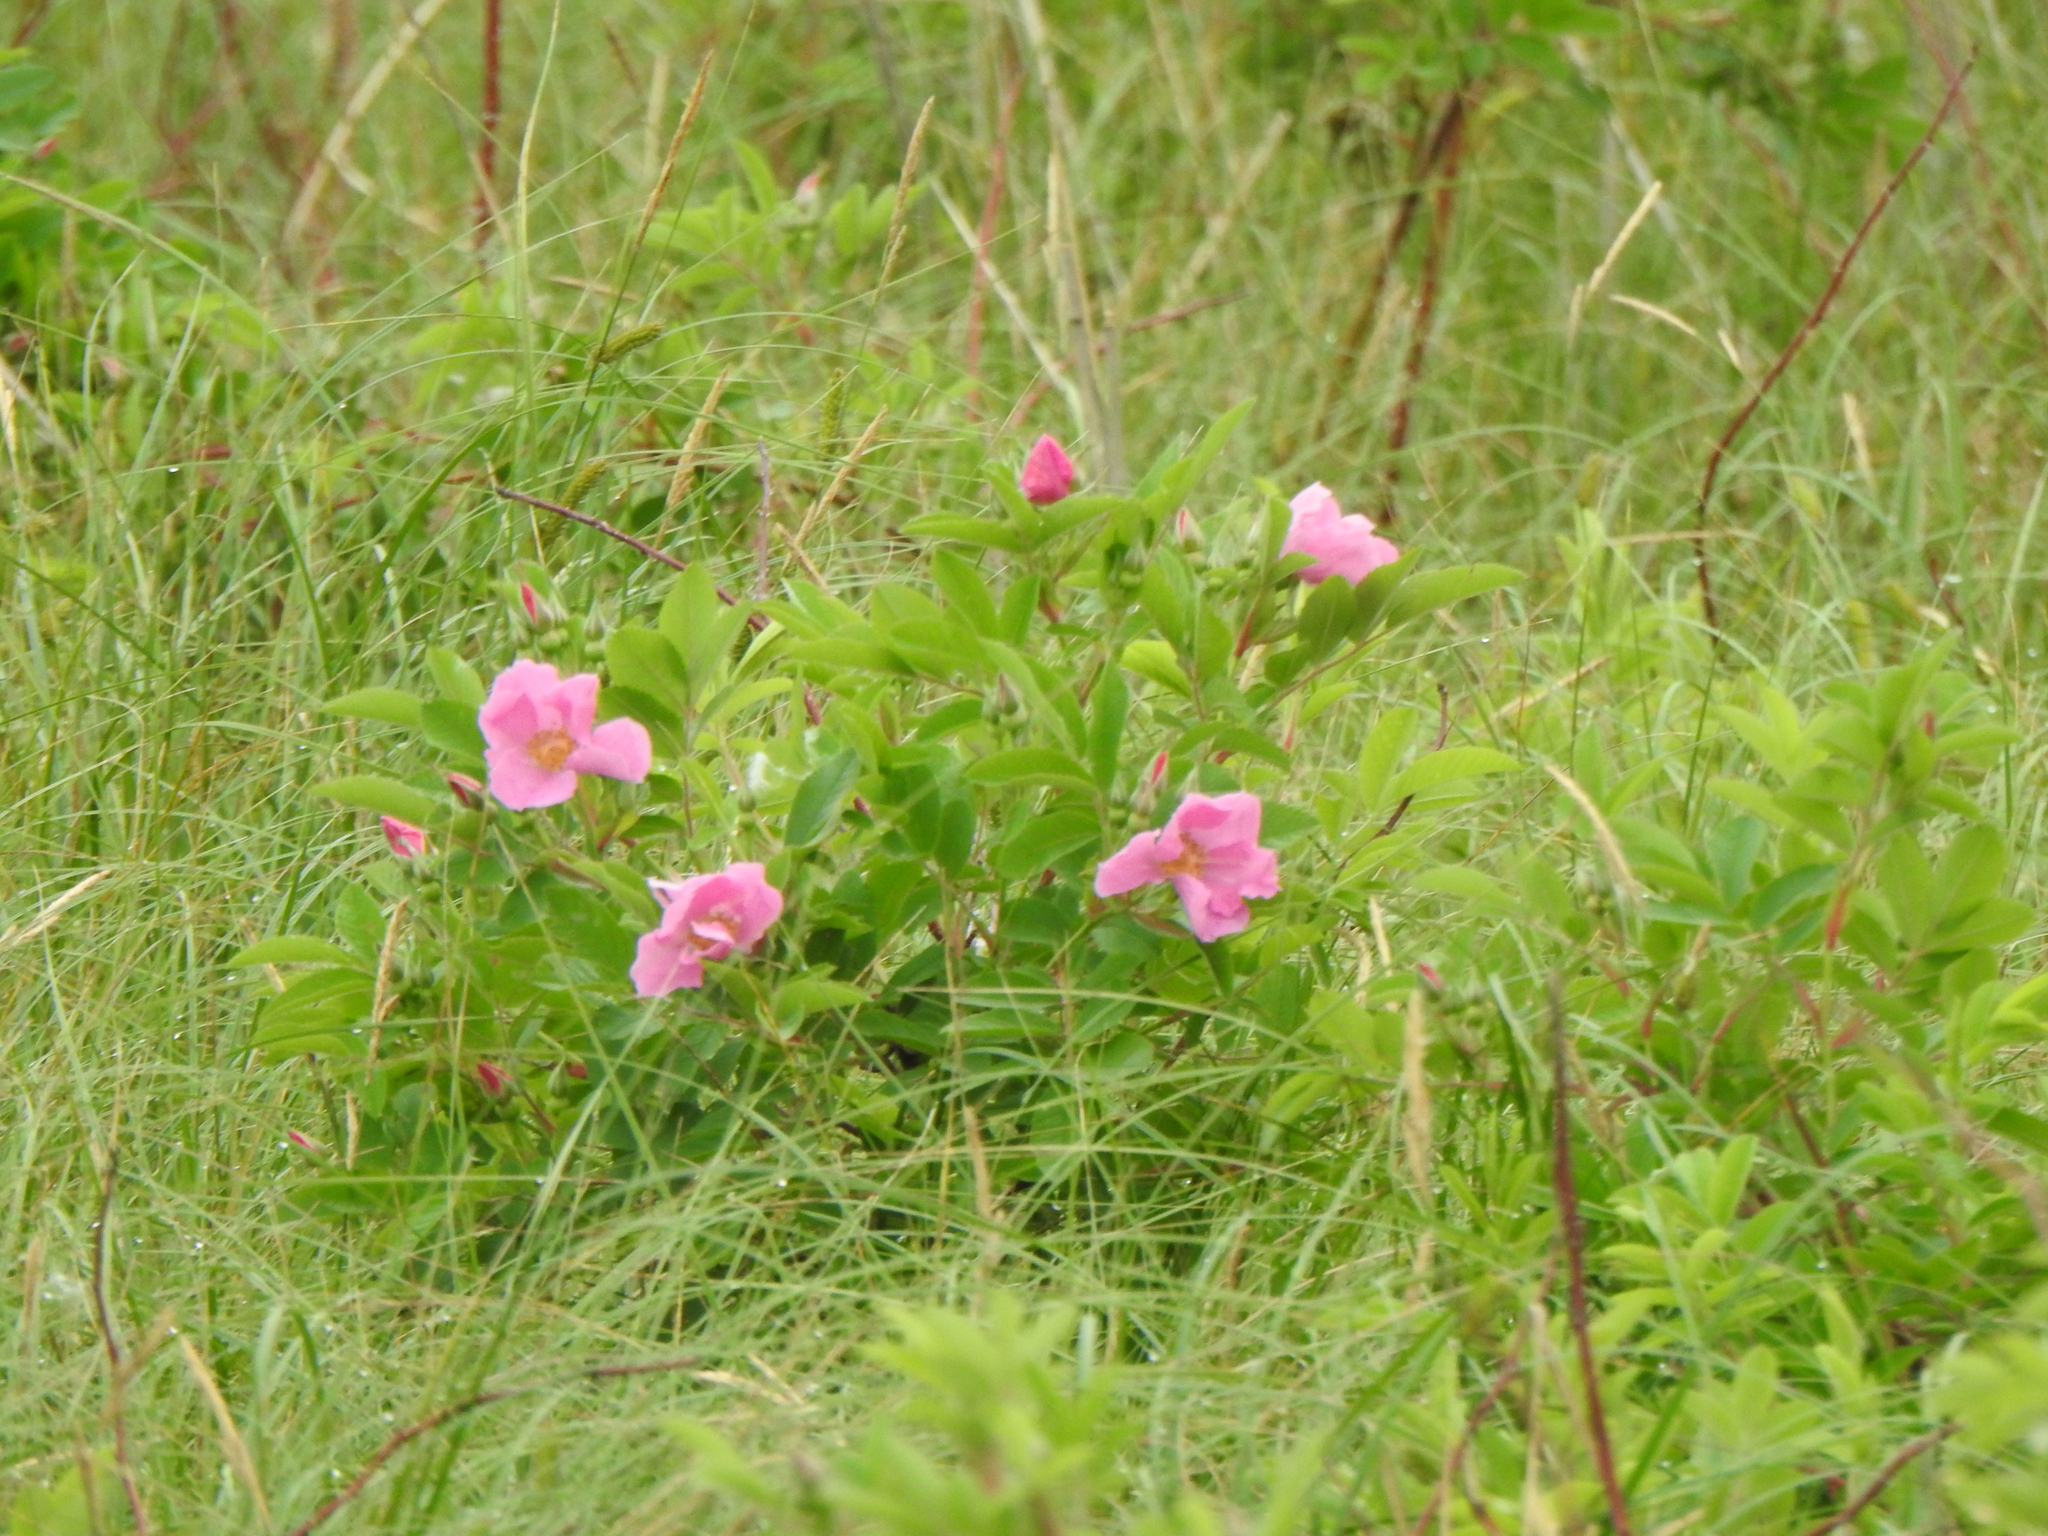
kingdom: Plantae
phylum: Tracheophyta
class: Magnoliopsida
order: Rosales
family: Rosaceae
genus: Rosa
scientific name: Rosa arkansana
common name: Prairie rose
